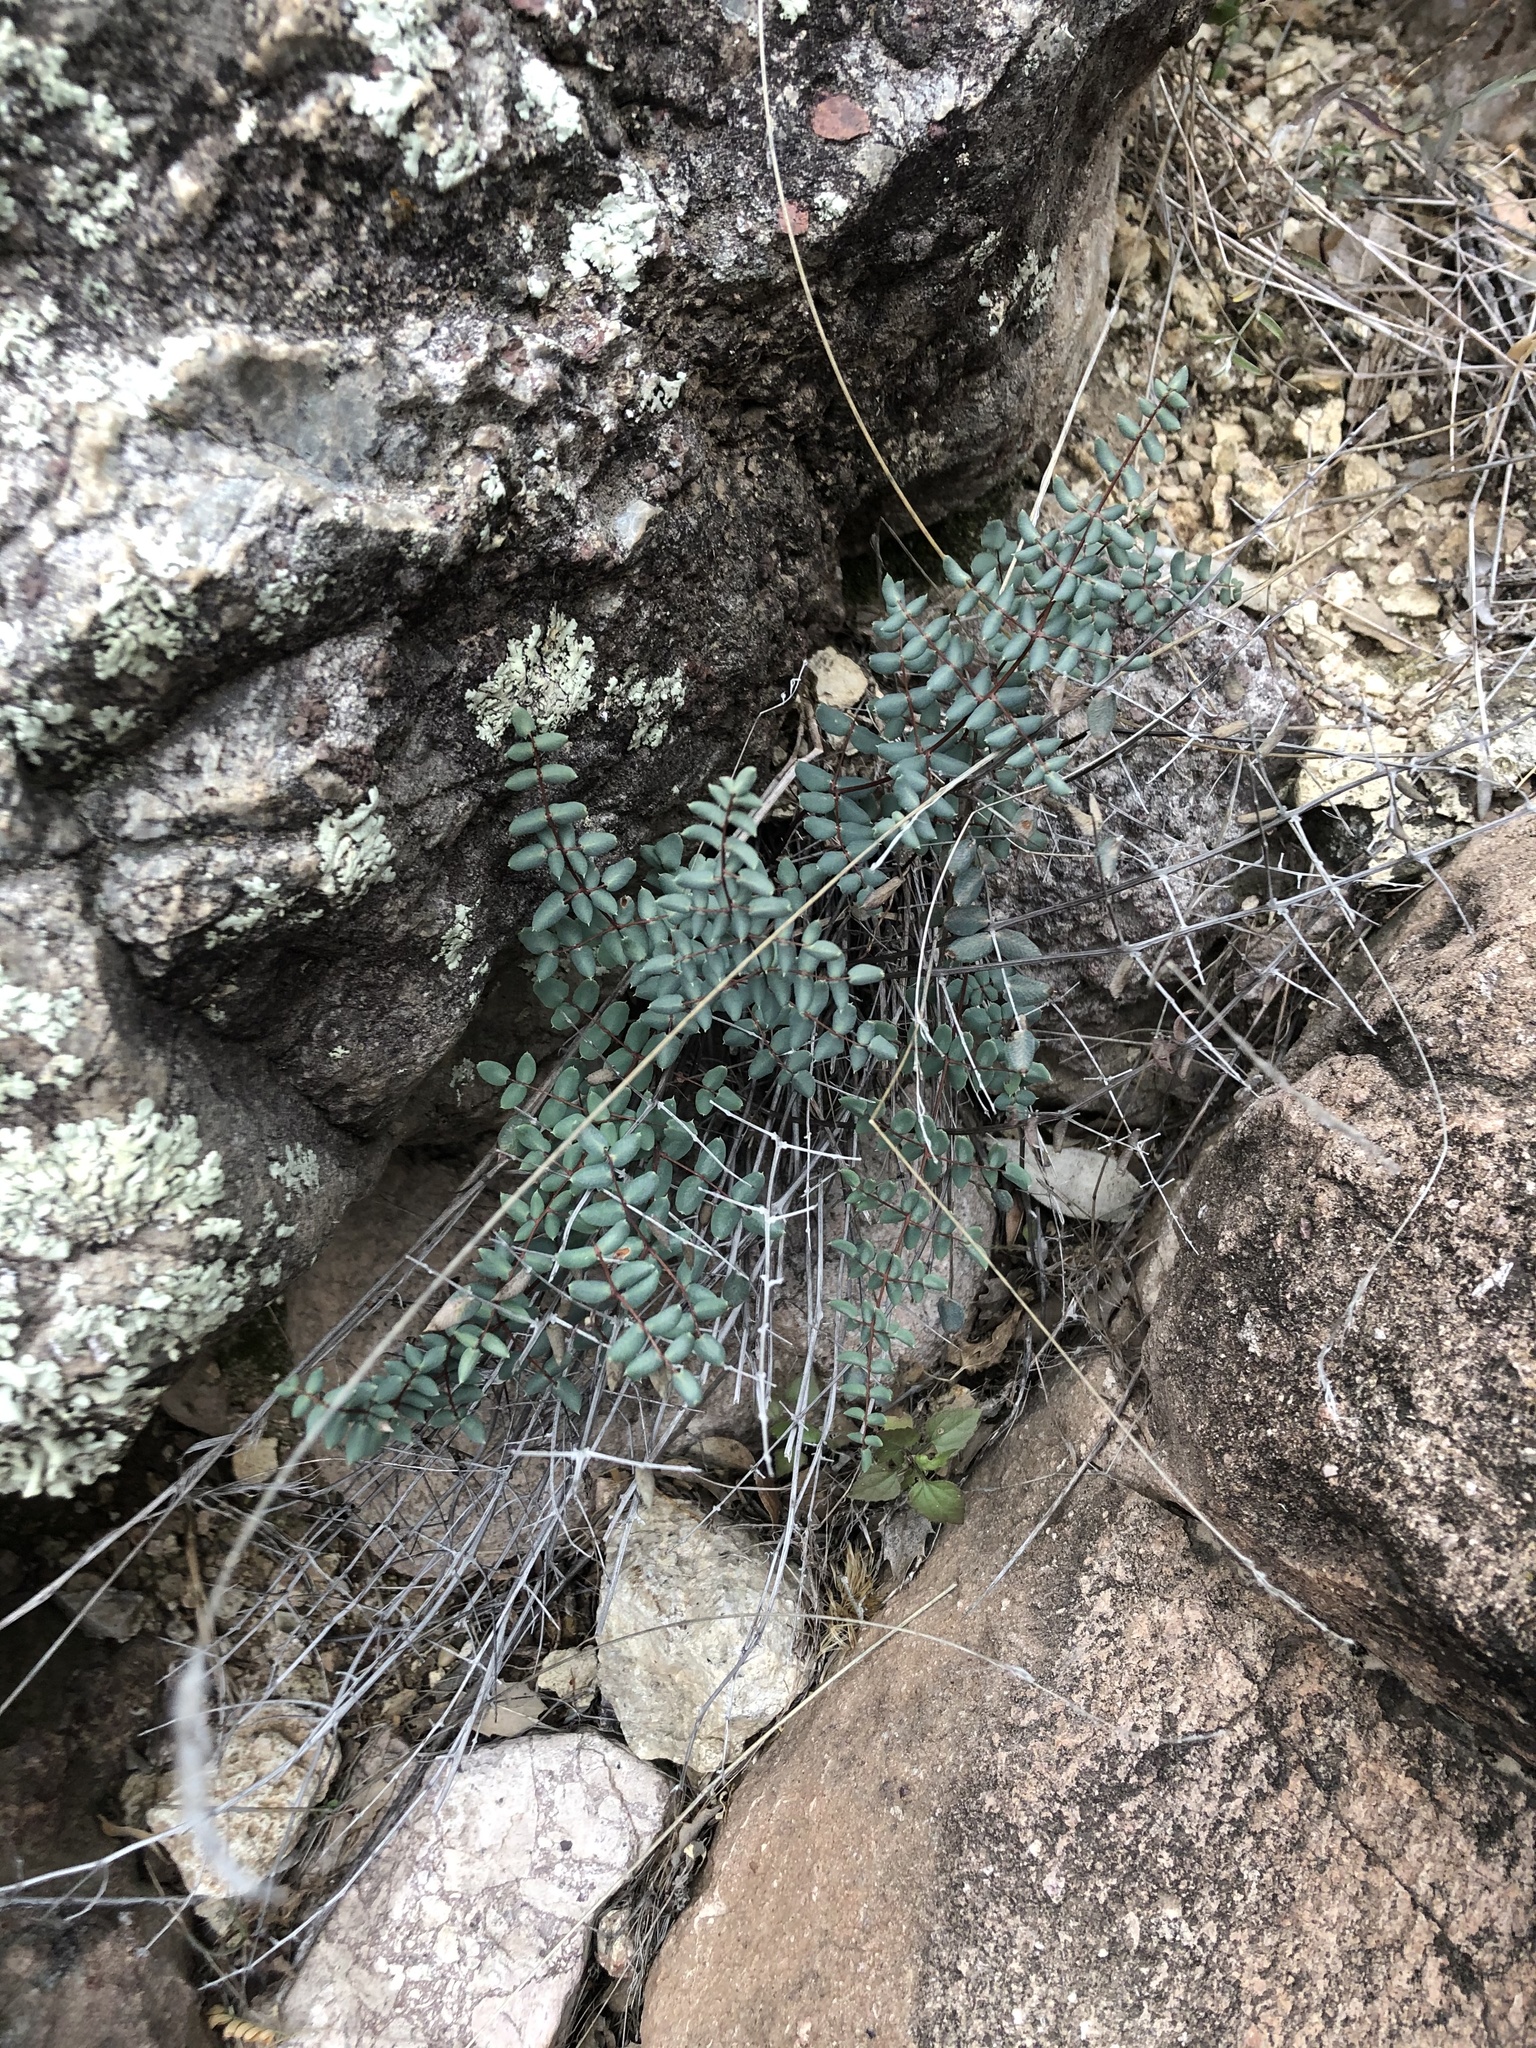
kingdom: Plantae
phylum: Tracheophyta
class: Polypodiopsida
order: Polypodiales
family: Pteridaceae
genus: Pellaea
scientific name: Pellaea truncata
